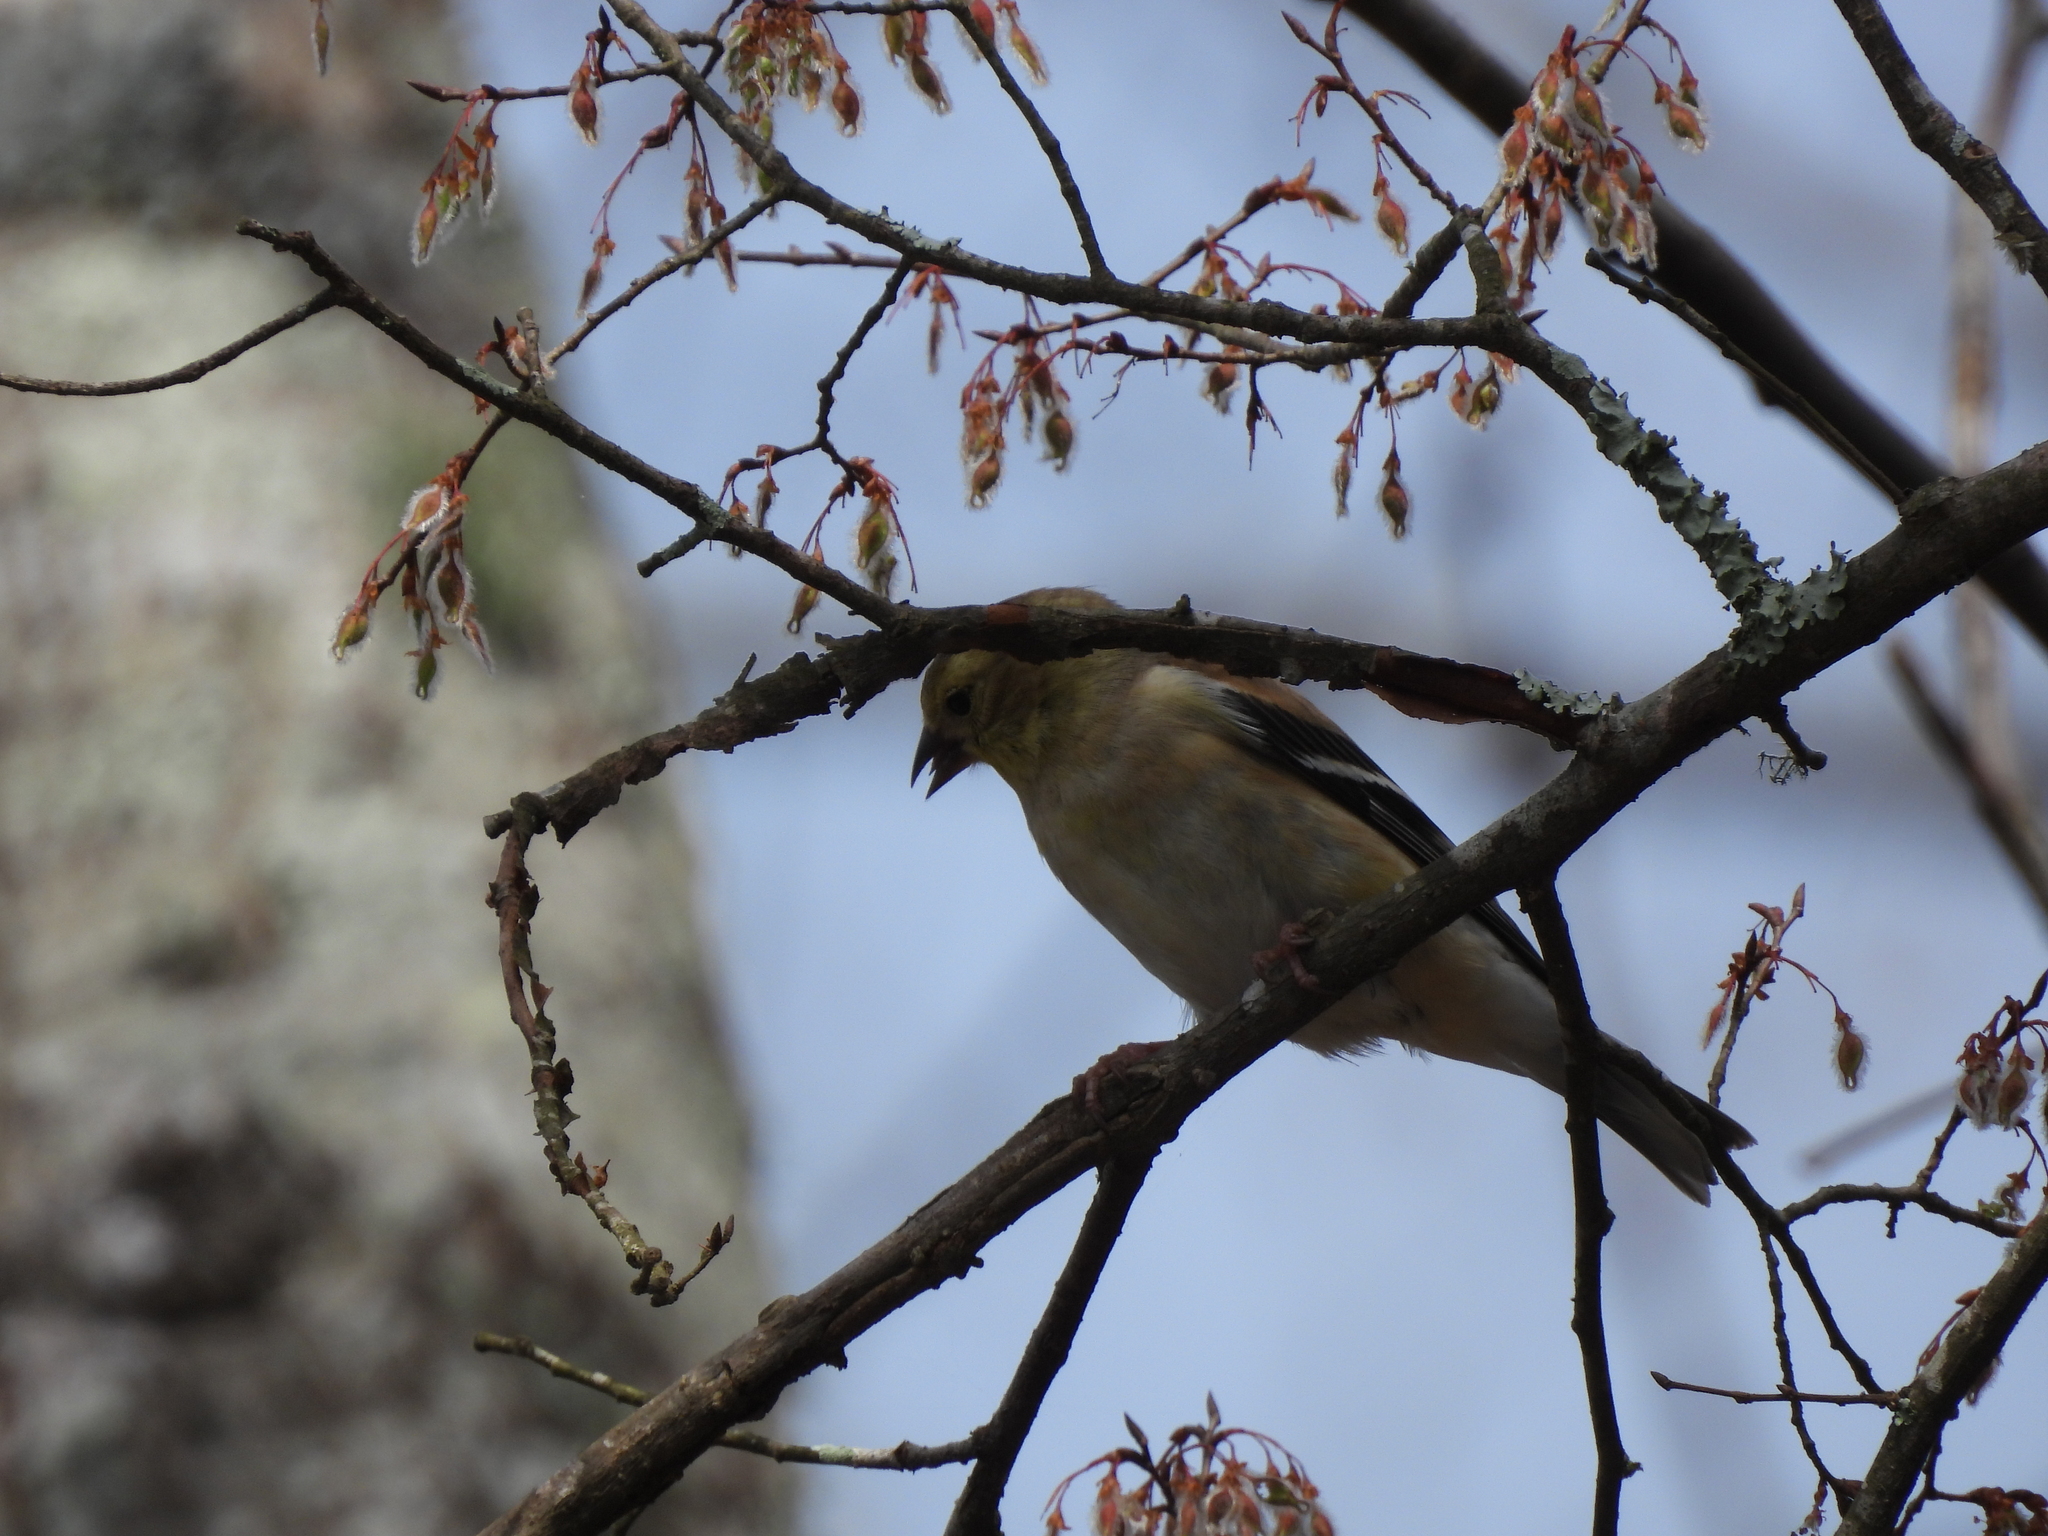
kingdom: Animalia
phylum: Chordata
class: Aves
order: Passeriformes
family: Fringillidae
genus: Spinus
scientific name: Spinus tristis
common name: American goldfinch
